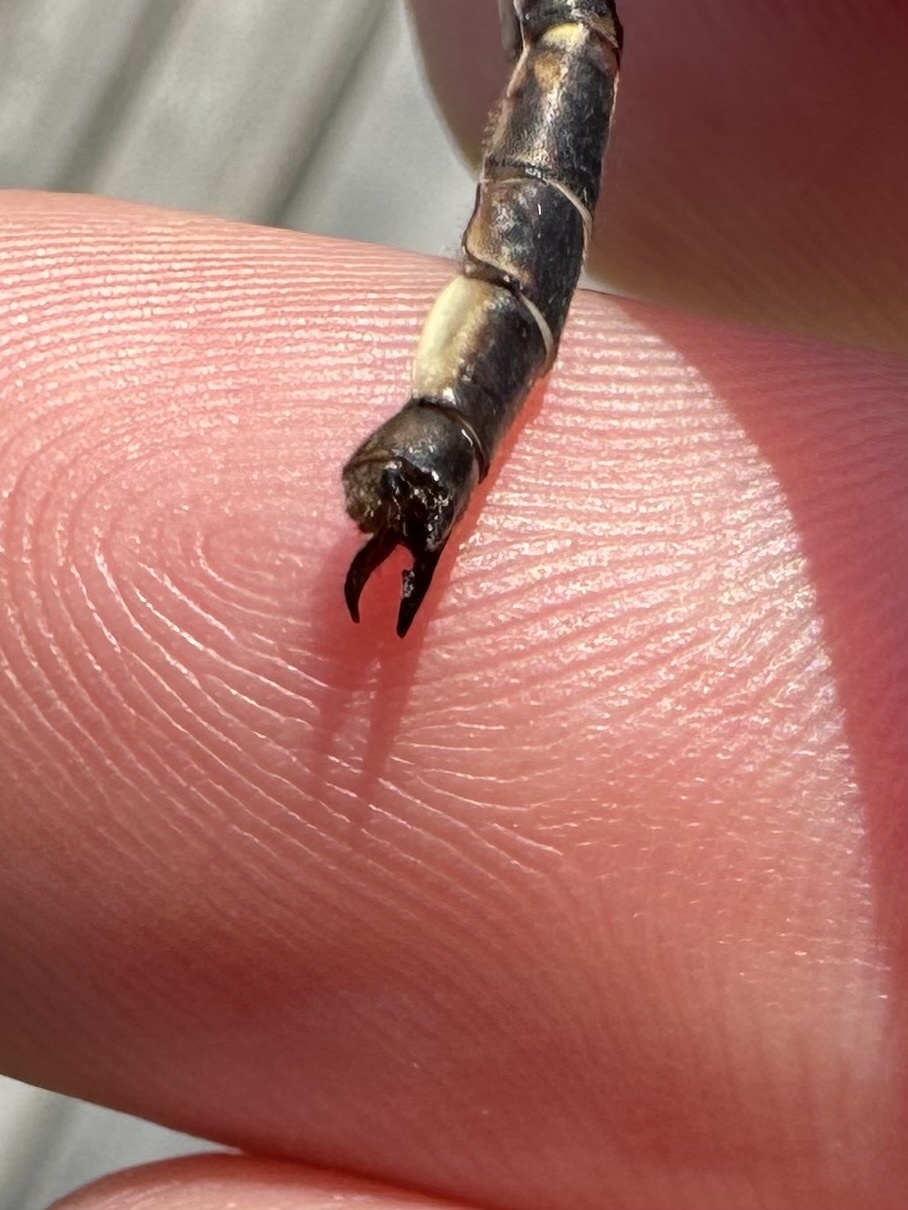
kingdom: Animalia
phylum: Arthropoda
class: Insecta
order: Odonata
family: Gomphidae
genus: Phanogomphus
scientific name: Phanogomphus spicatus
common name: Dusky clubtail
